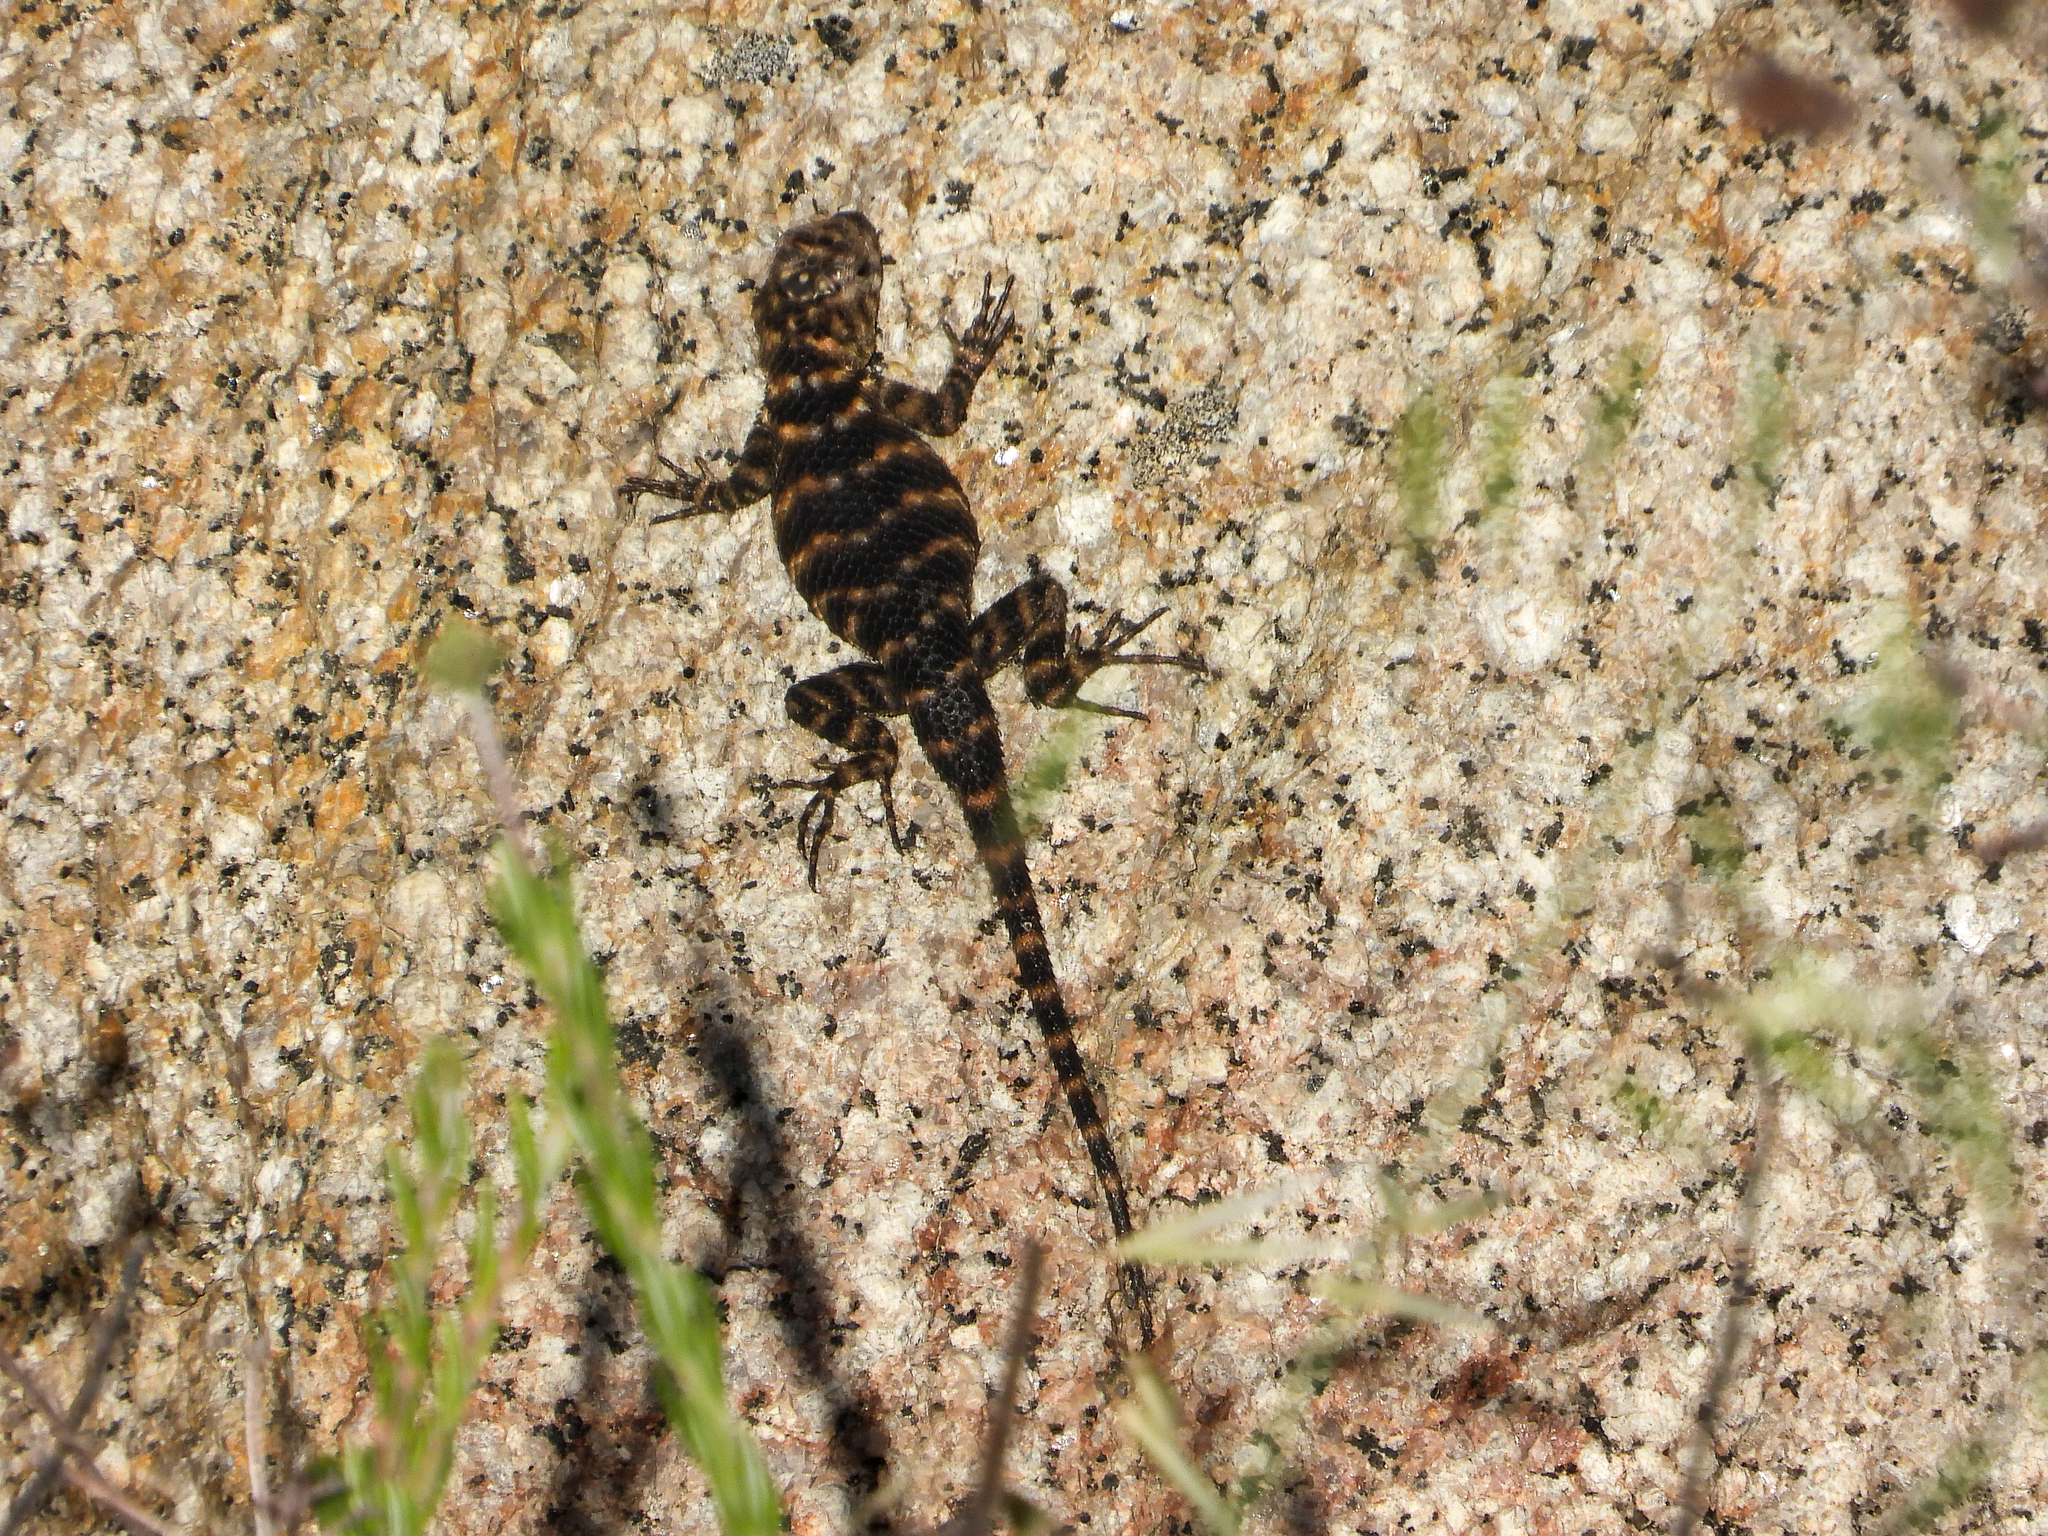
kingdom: Animalia
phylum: Chordata
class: Squamata
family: Phrynosomatidae
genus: Sceloporus
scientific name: Sceloporus orcutti
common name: Granite spiny lizard
